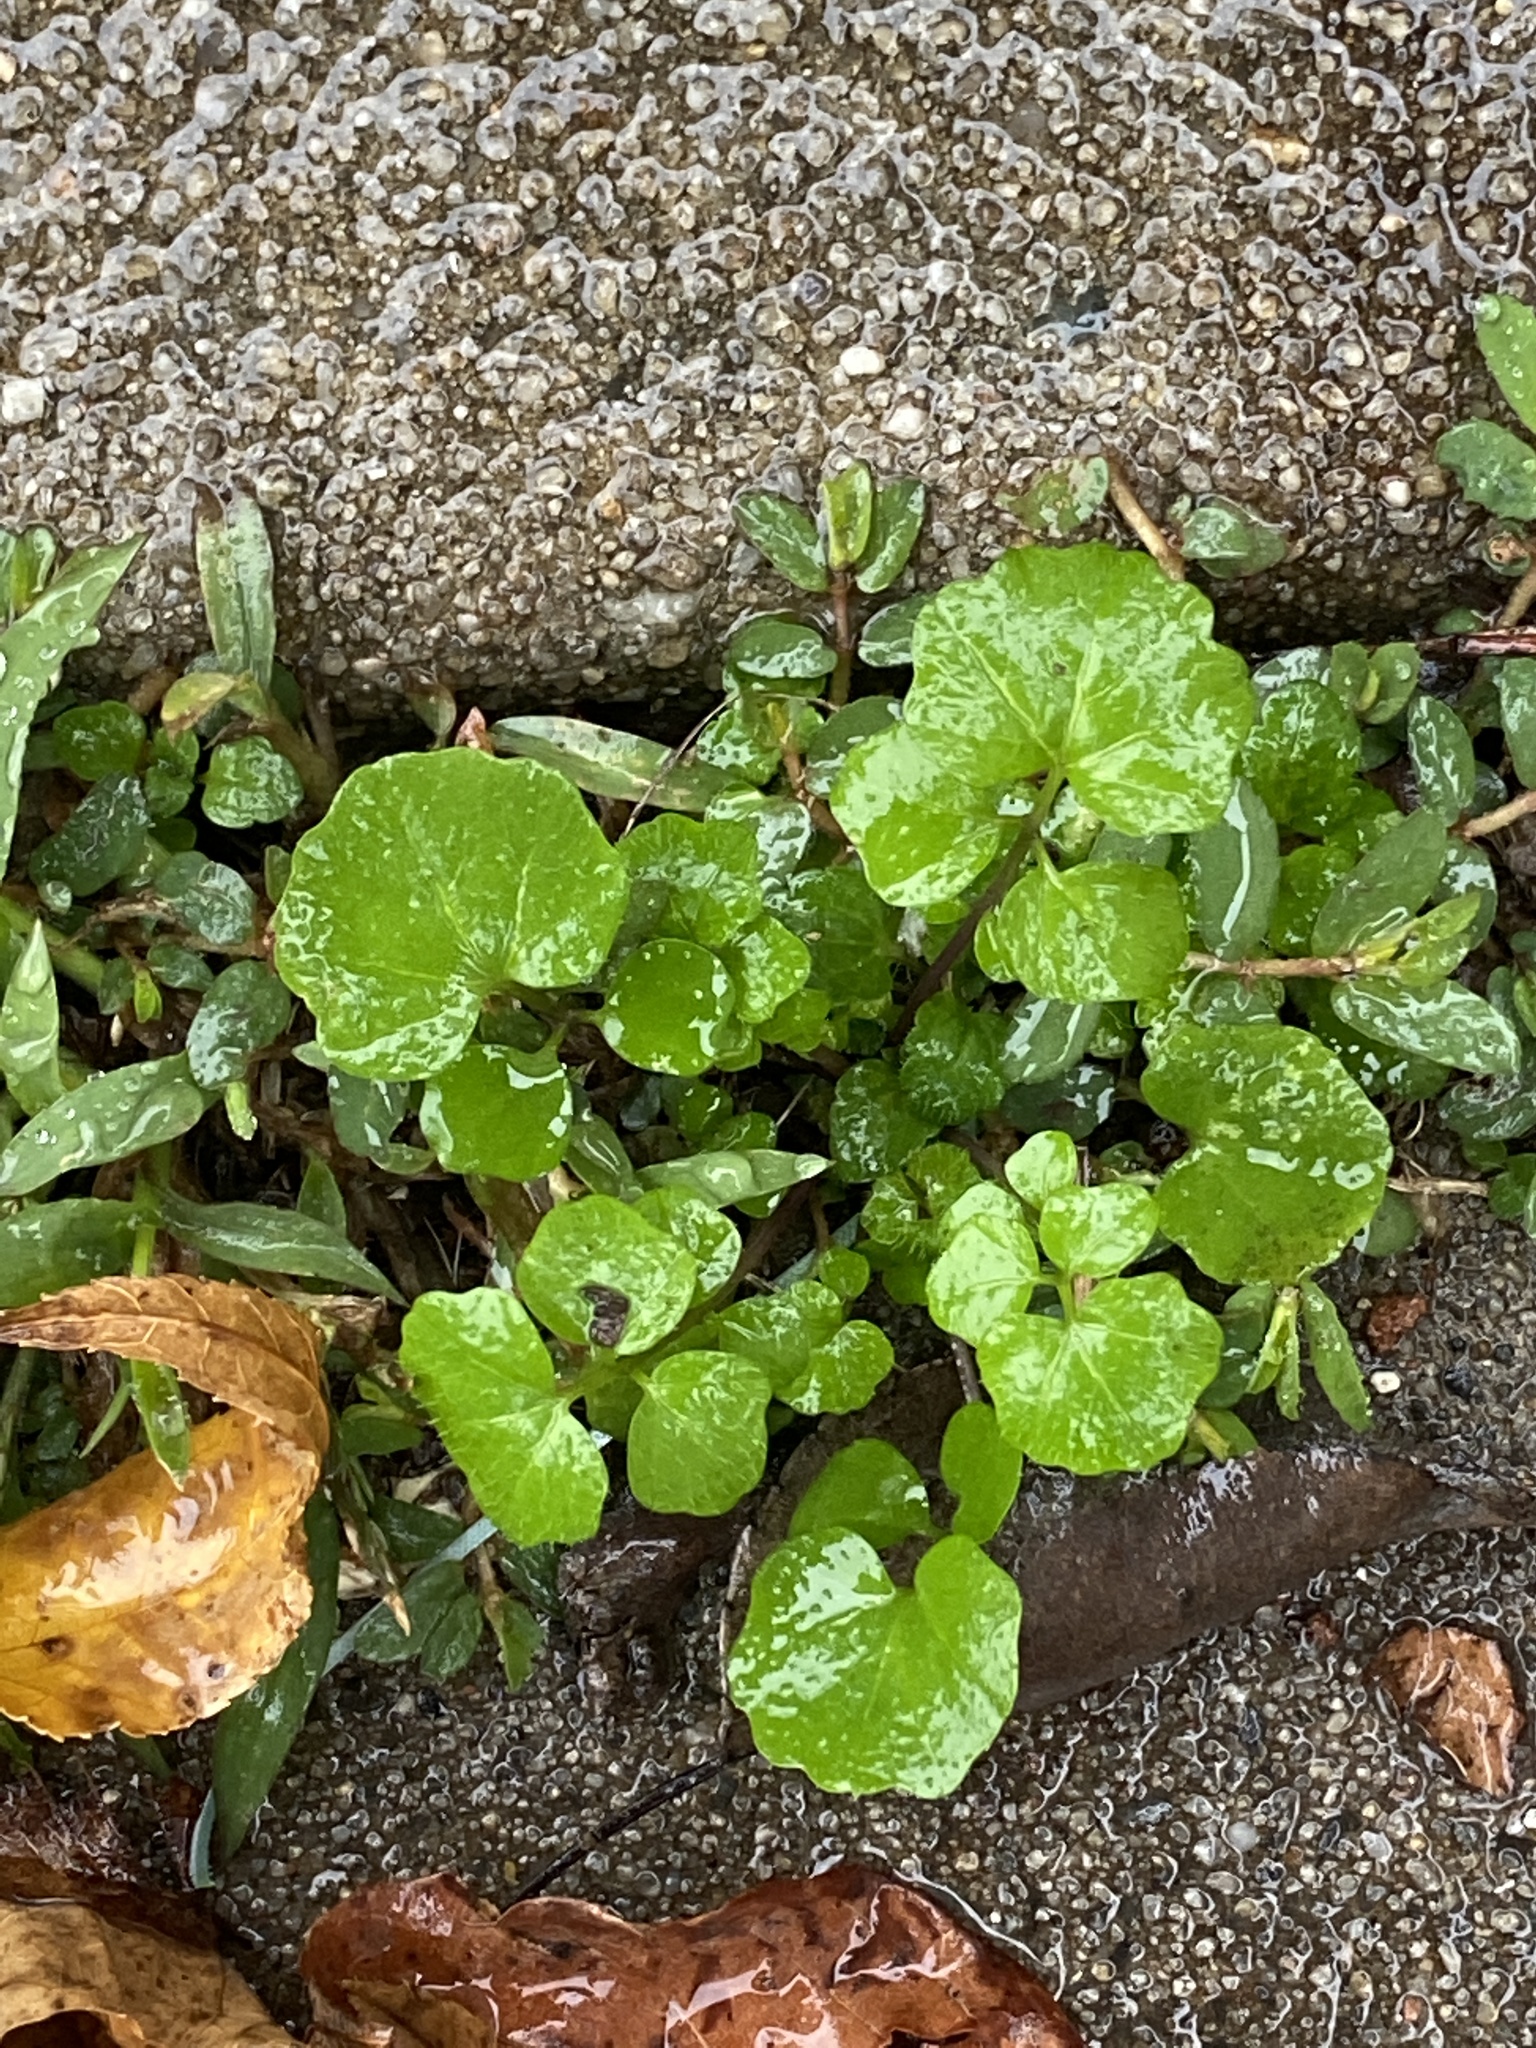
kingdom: Plantae
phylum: Tracheophyta
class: Magnoliopsida
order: Brassicales
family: Brassicaceae
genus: Cardamine
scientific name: Cardamine hirsuta
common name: Hairy bittercress
